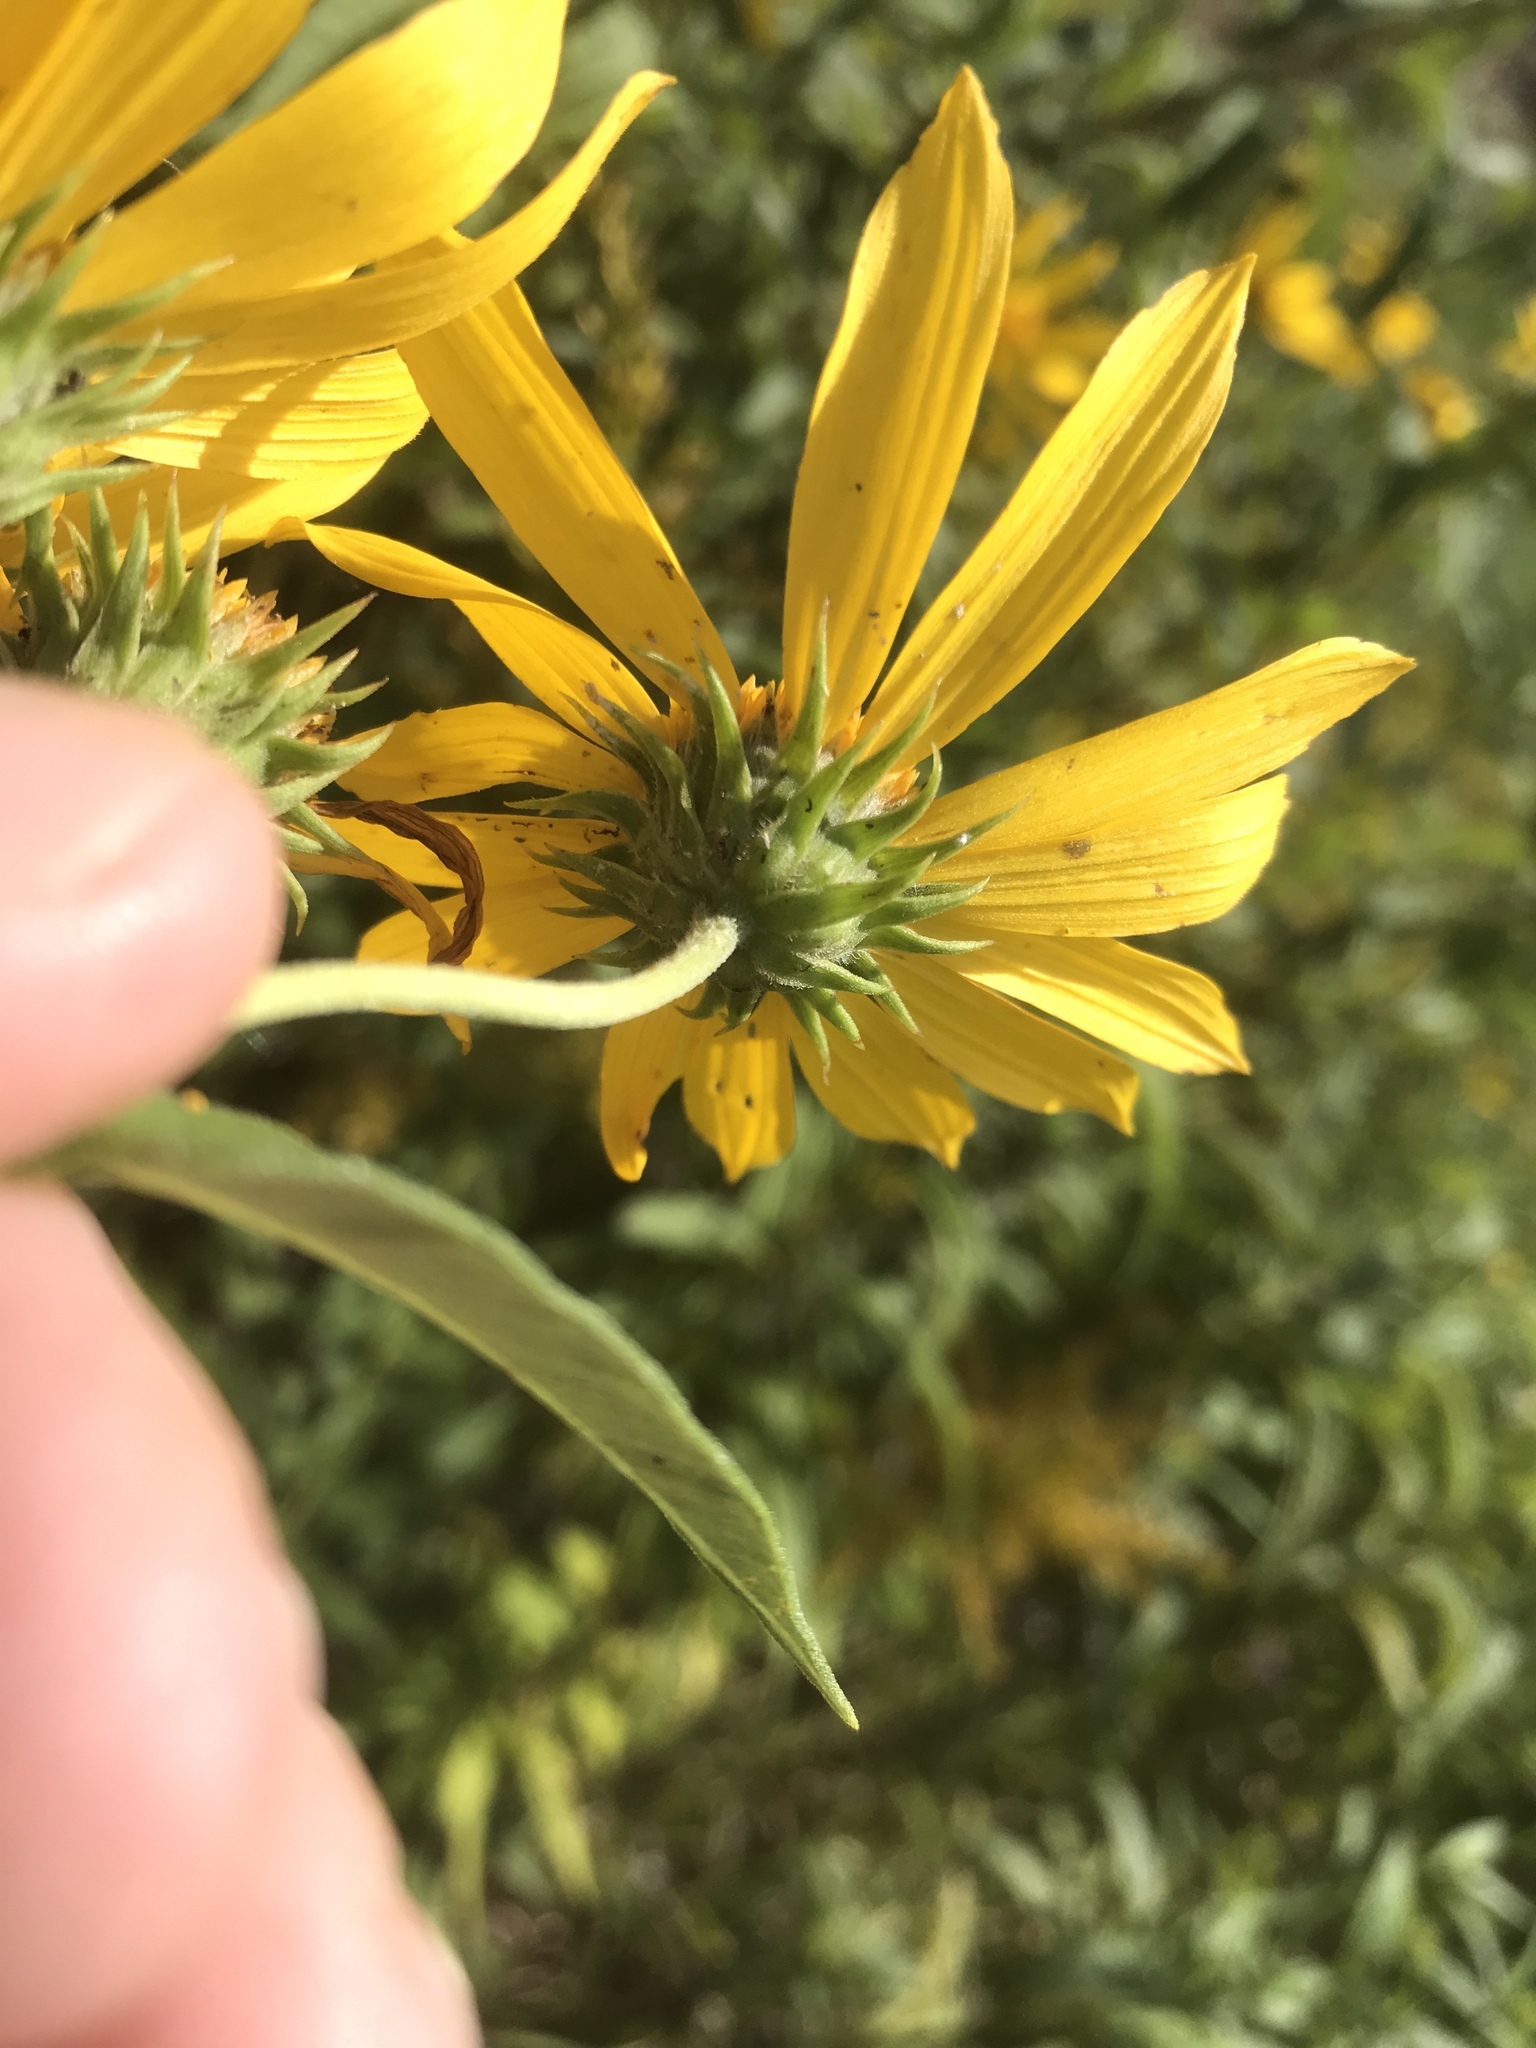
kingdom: Plantae
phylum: Tracheophyta
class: Magnoliopsida
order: Asterales
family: Asteraceae
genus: Helianthus
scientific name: Helianthus grosseserratus
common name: Sawtooth sunflower
